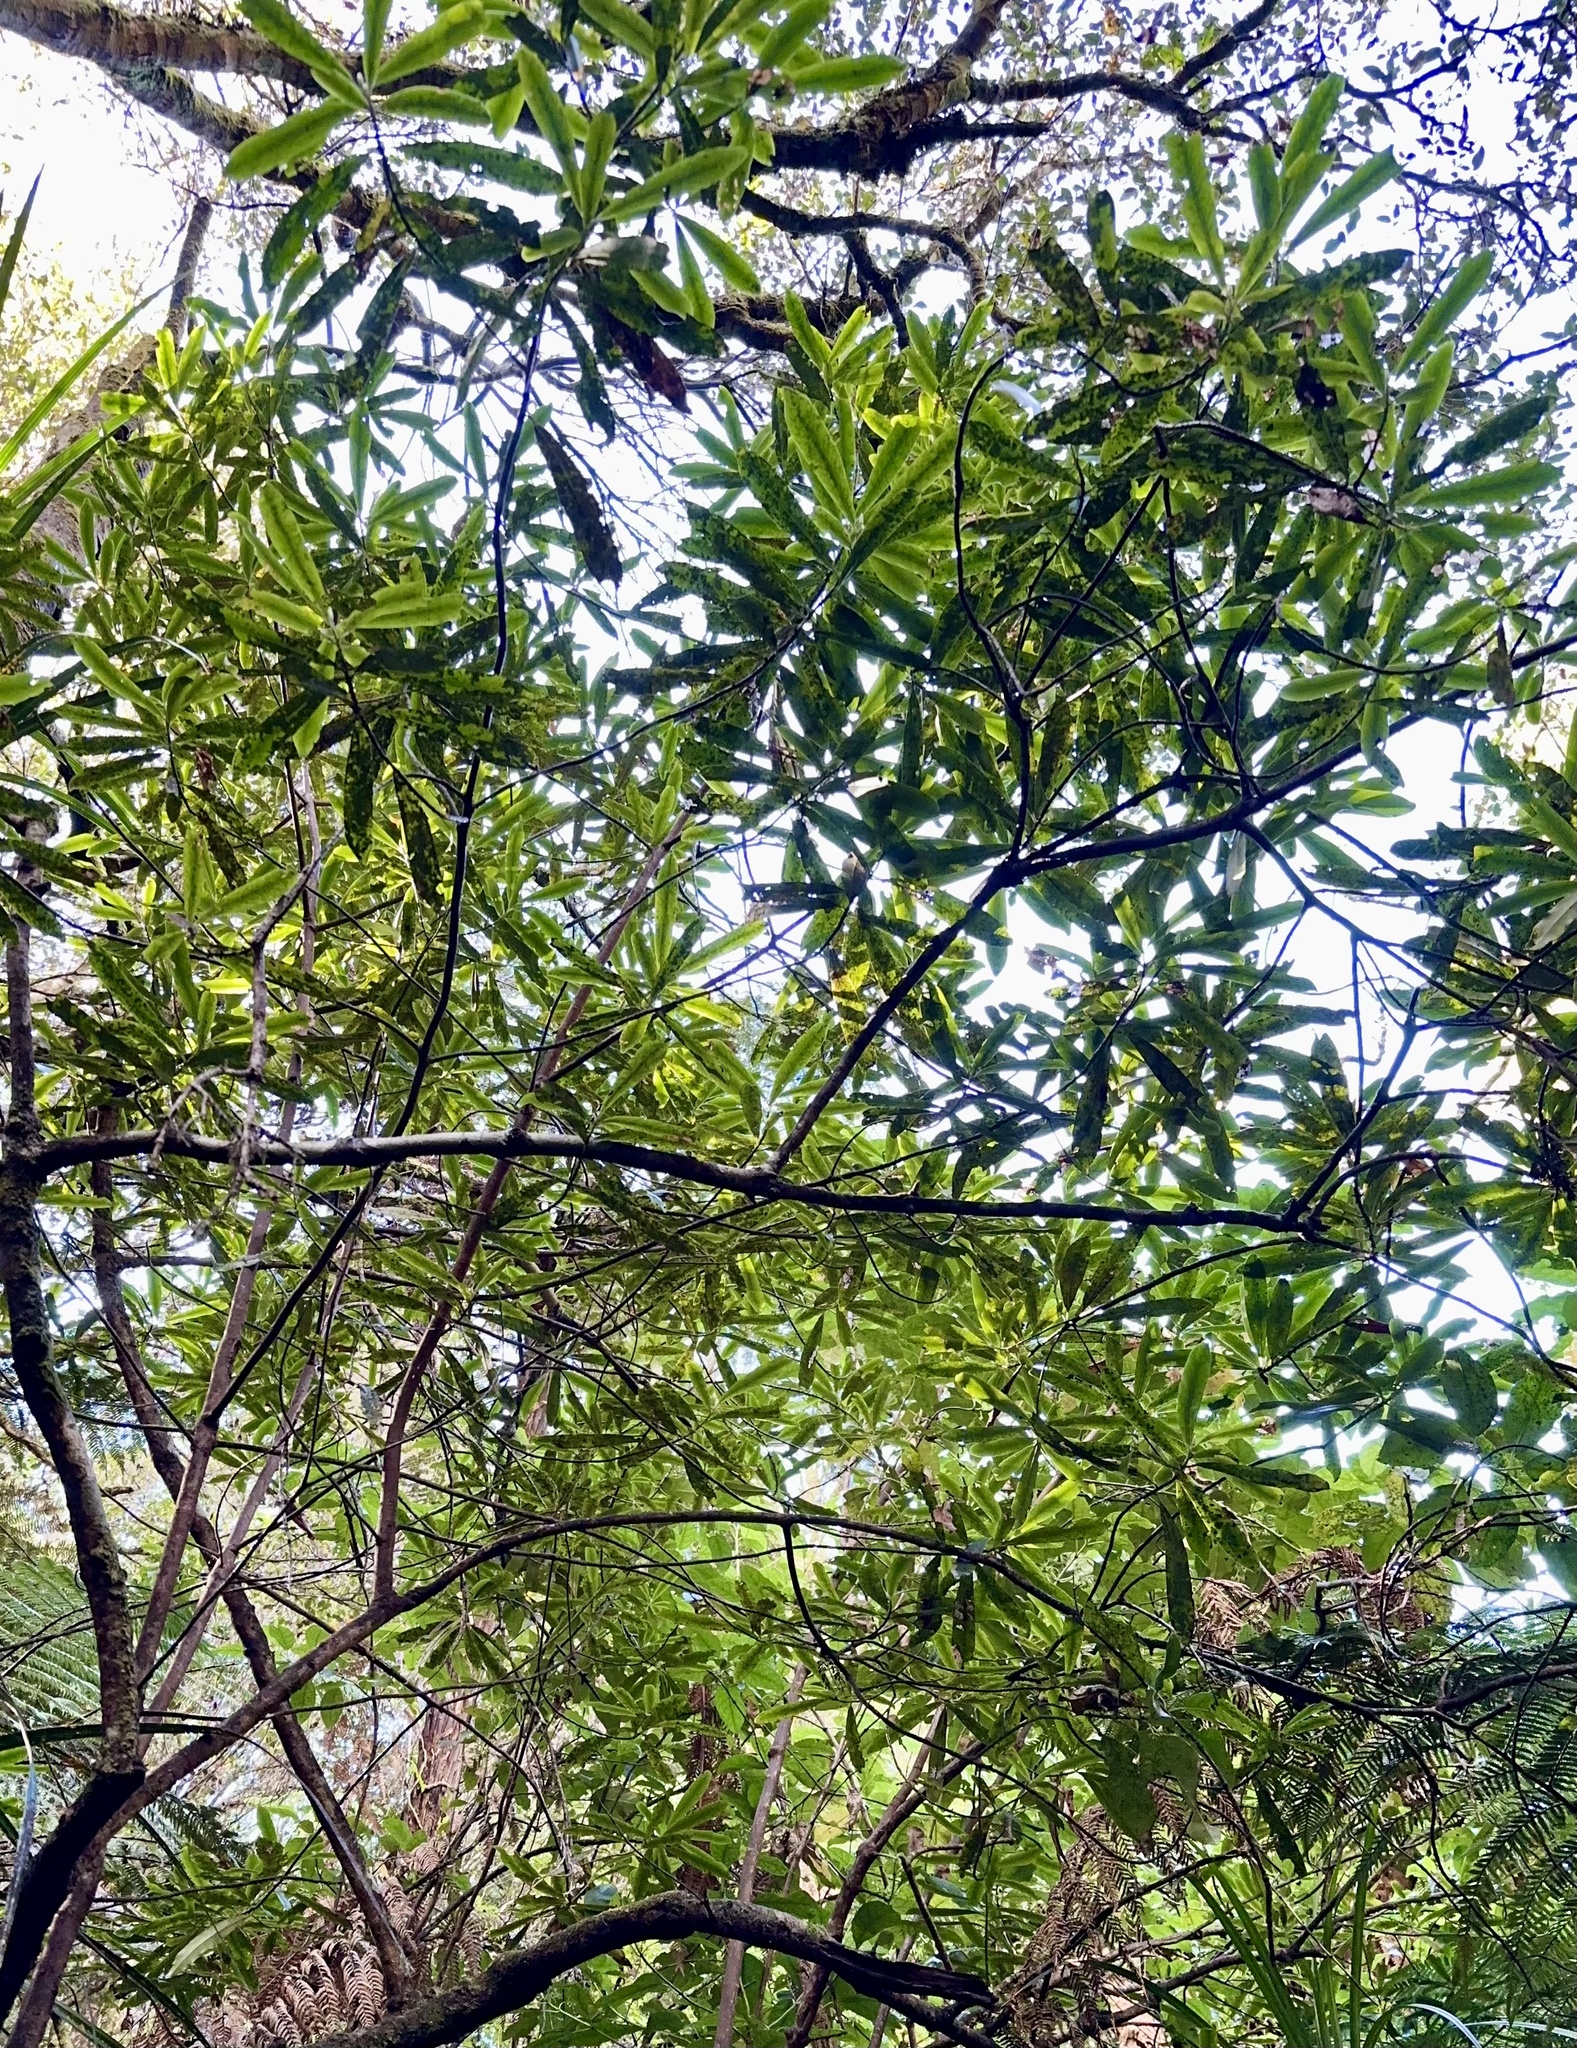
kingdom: Plantae
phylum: Tracheophyta
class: Magnoliopsida
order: Ericales
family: Primulaceae
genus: Myrsine
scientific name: Myrsine salicina
